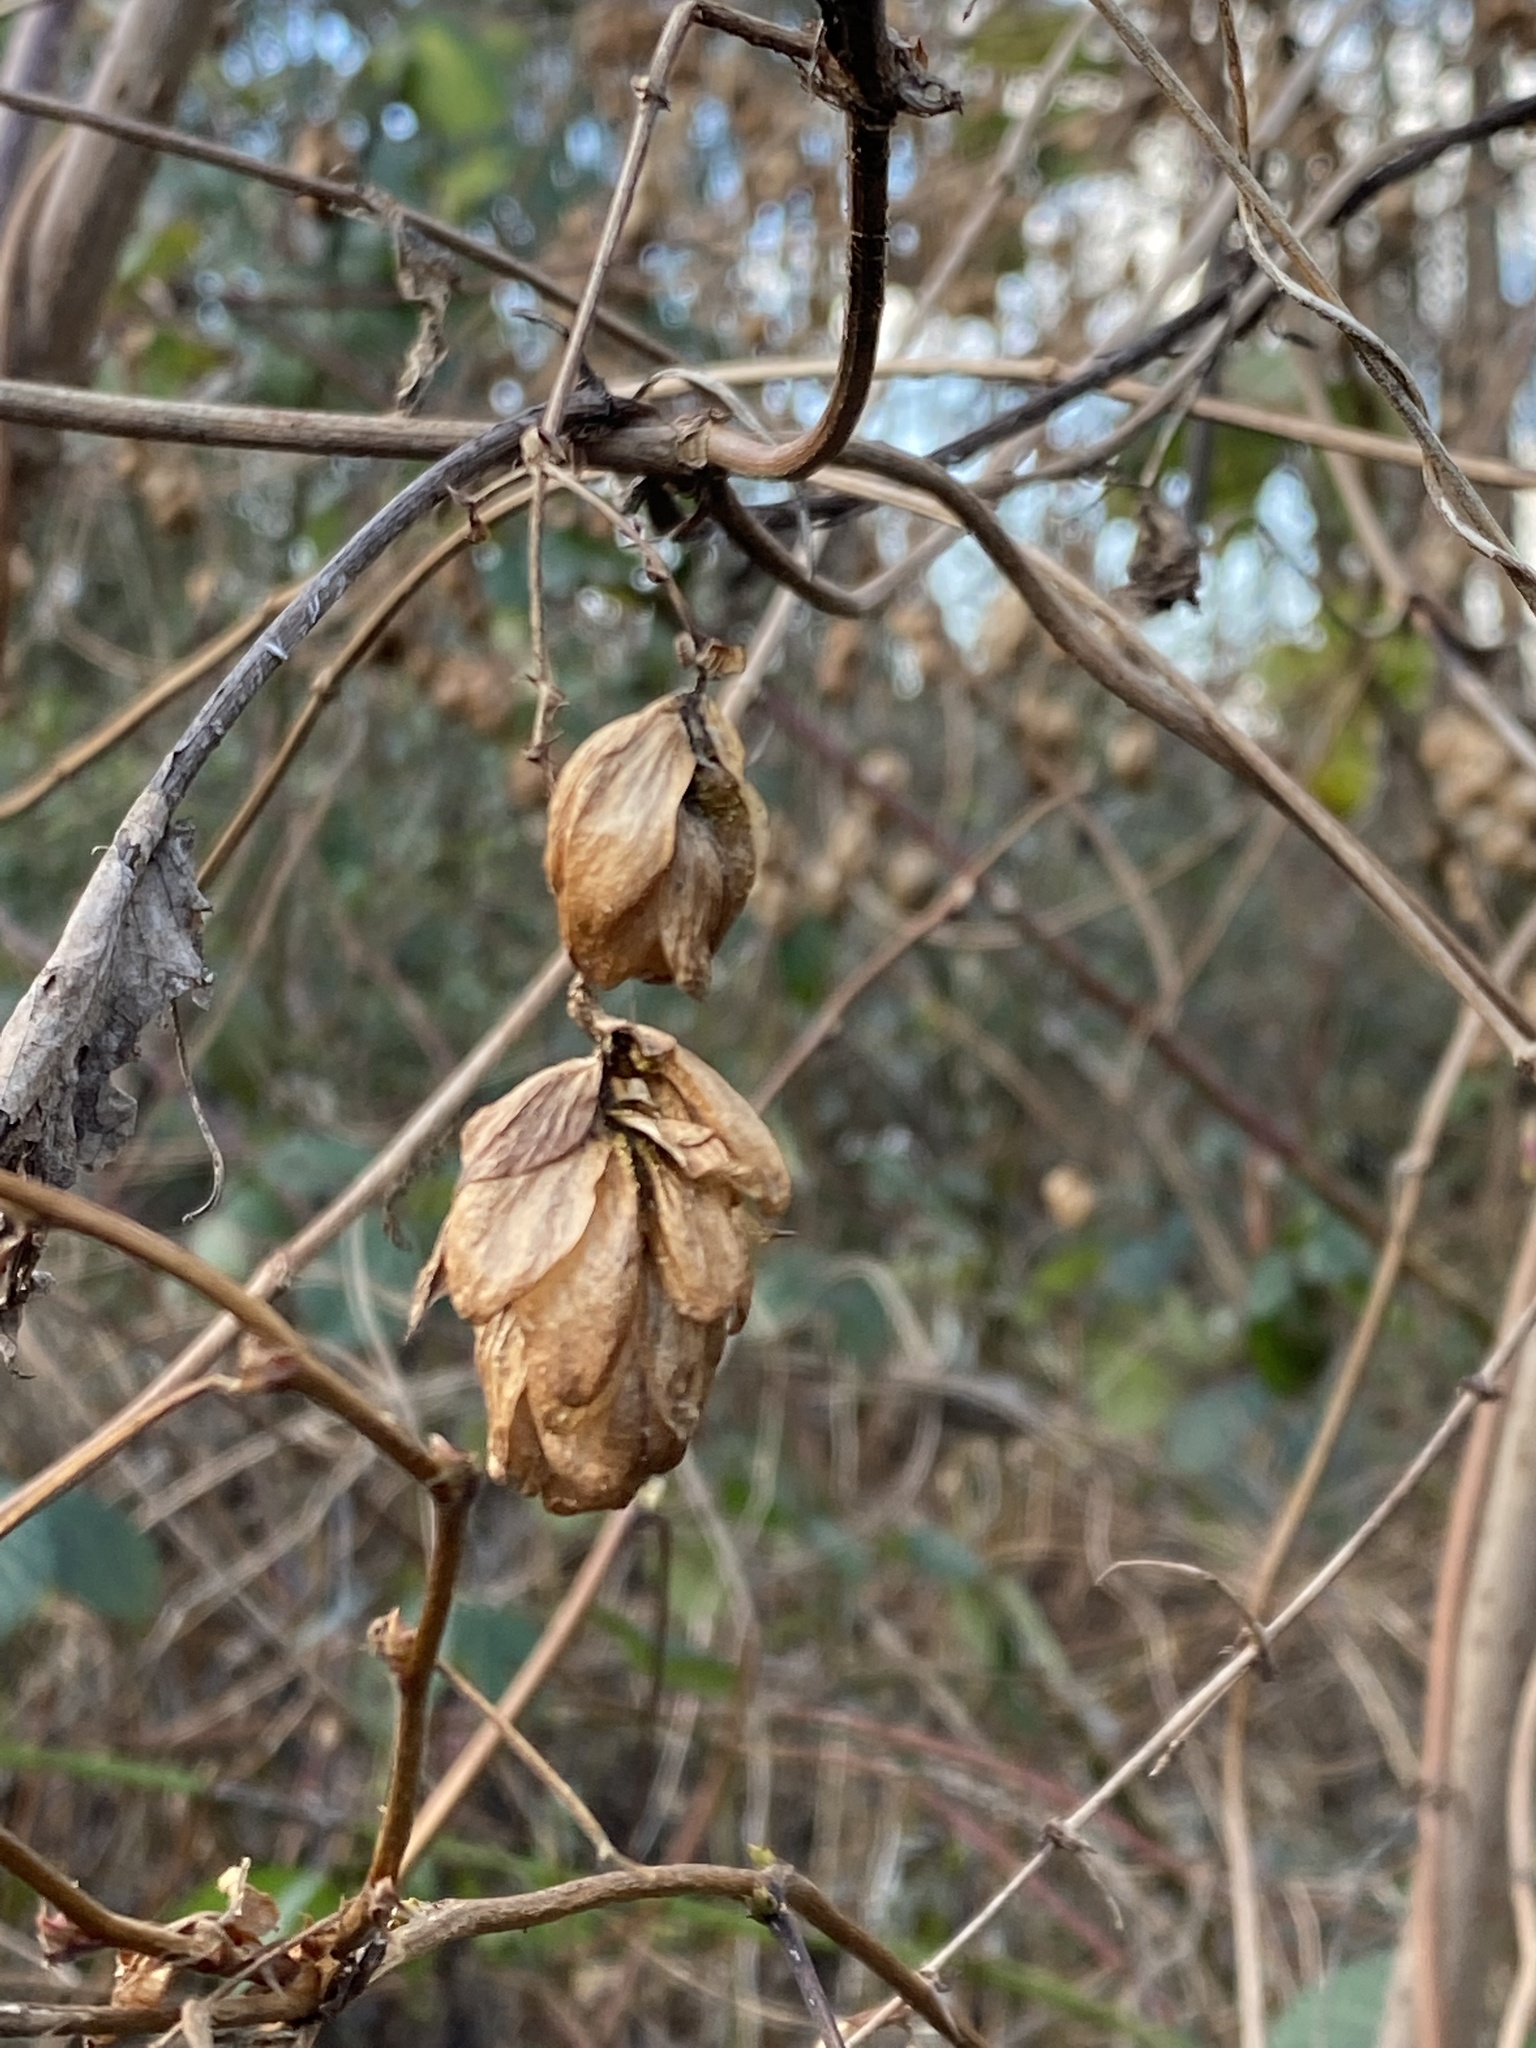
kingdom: Plantae
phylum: Tracheophyta
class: Magnoliopsida
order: Rosales
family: Cannabaceae
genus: Humulus
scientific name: Humulus lupulus
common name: Hop
